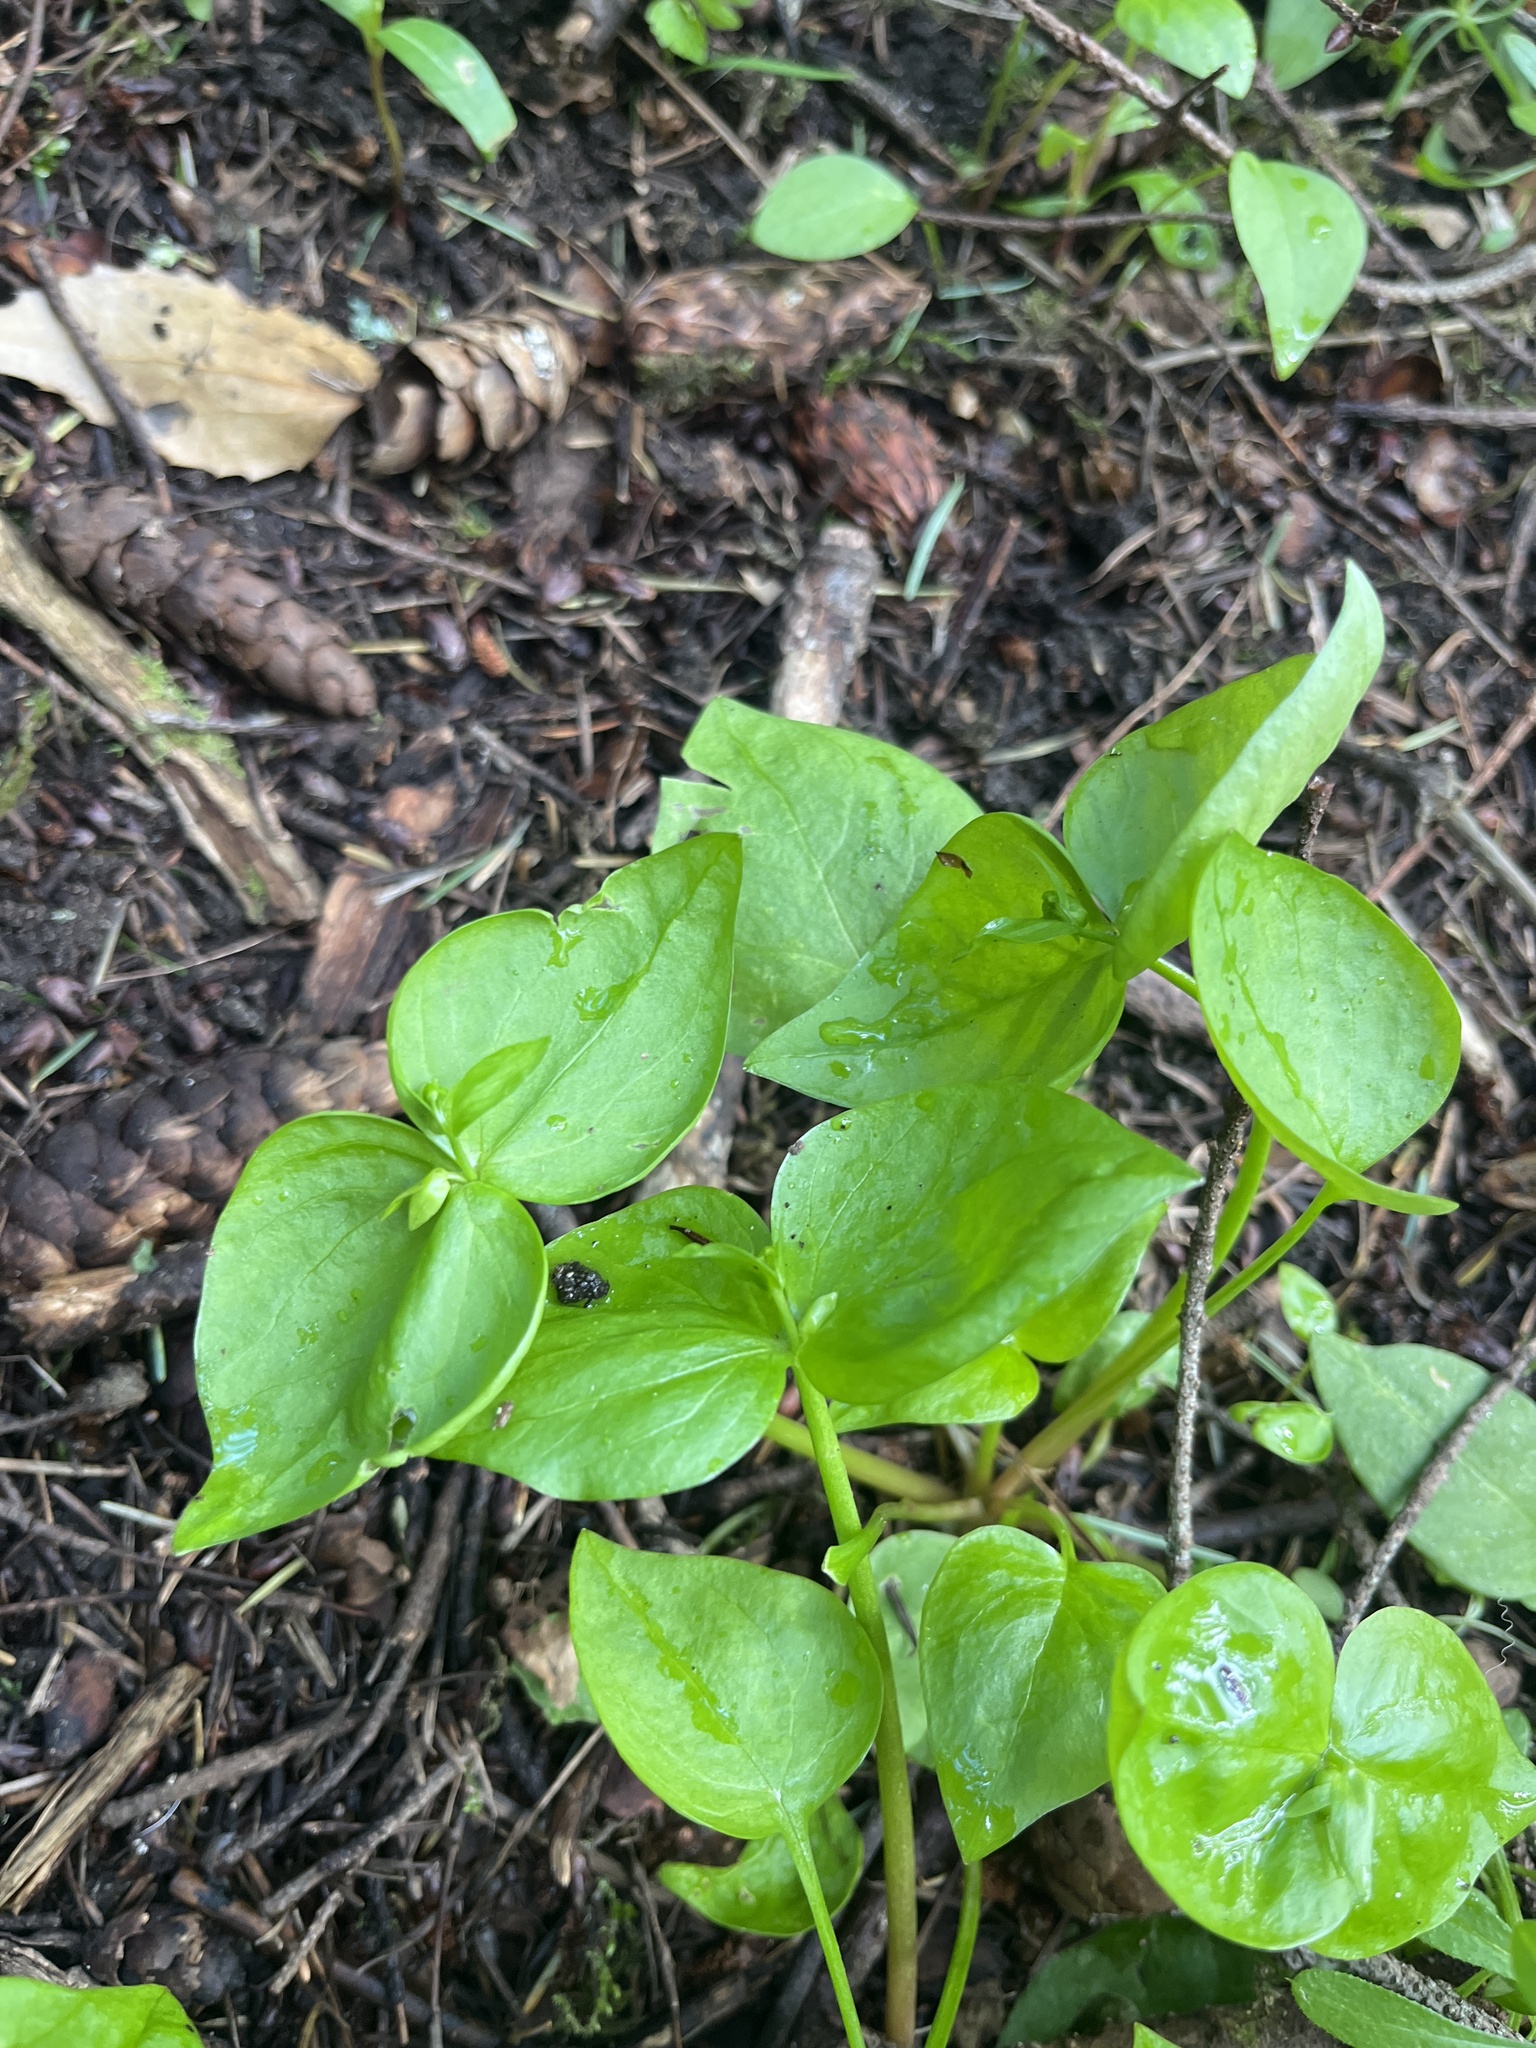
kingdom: Plantae
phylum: Tracheophyta
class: Magnoliopsida
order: Caryophyllales
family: Montiaceae
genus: Claytonia
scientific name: Claytonia sibirica
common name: Pink purslane
